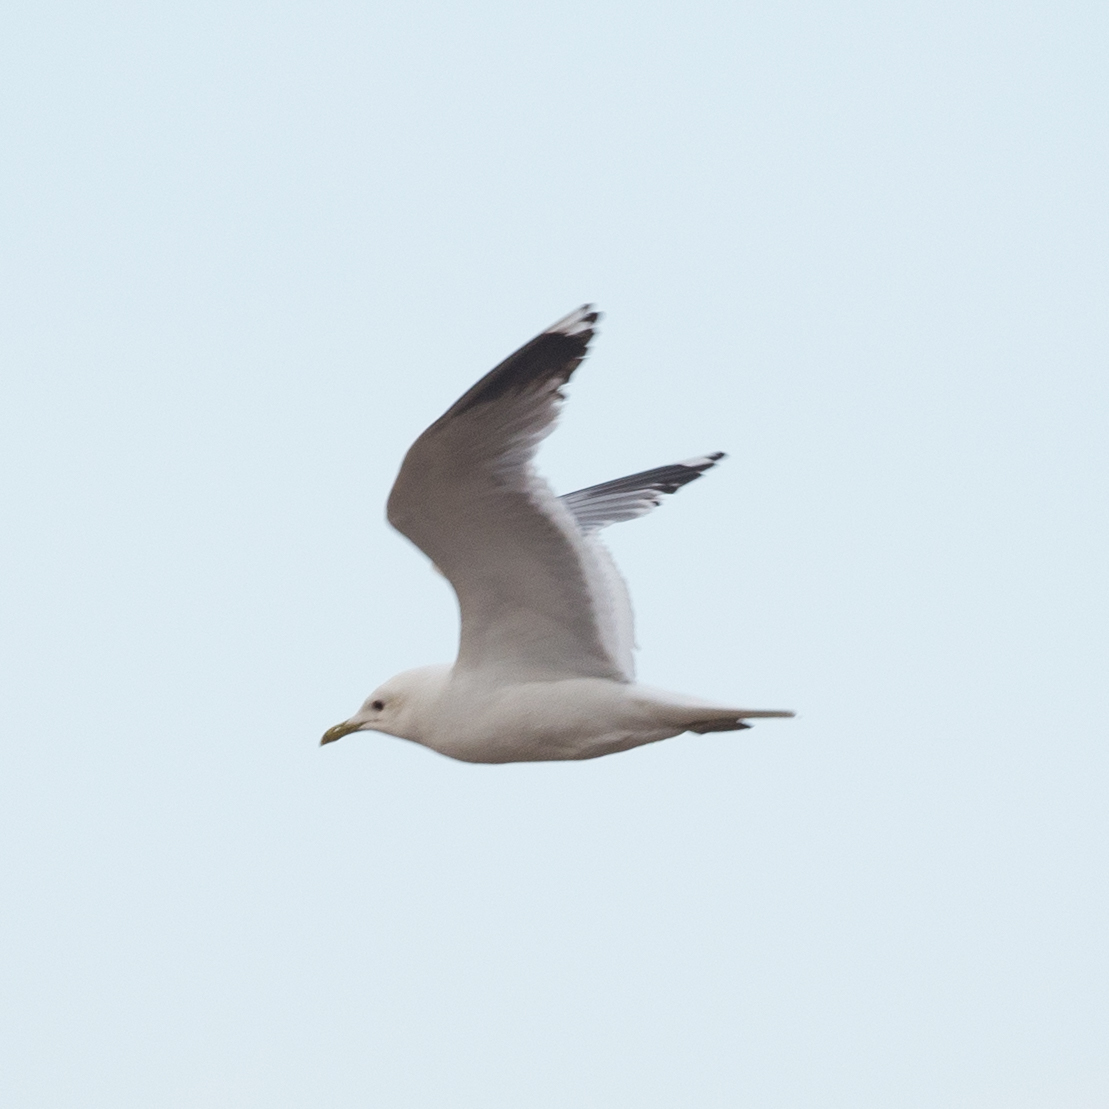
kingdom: Animalia
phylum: Chordata
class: Aves
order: Charadriiformes
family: Laridae
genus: Larus
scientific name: Larus canus
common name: Mew gull
